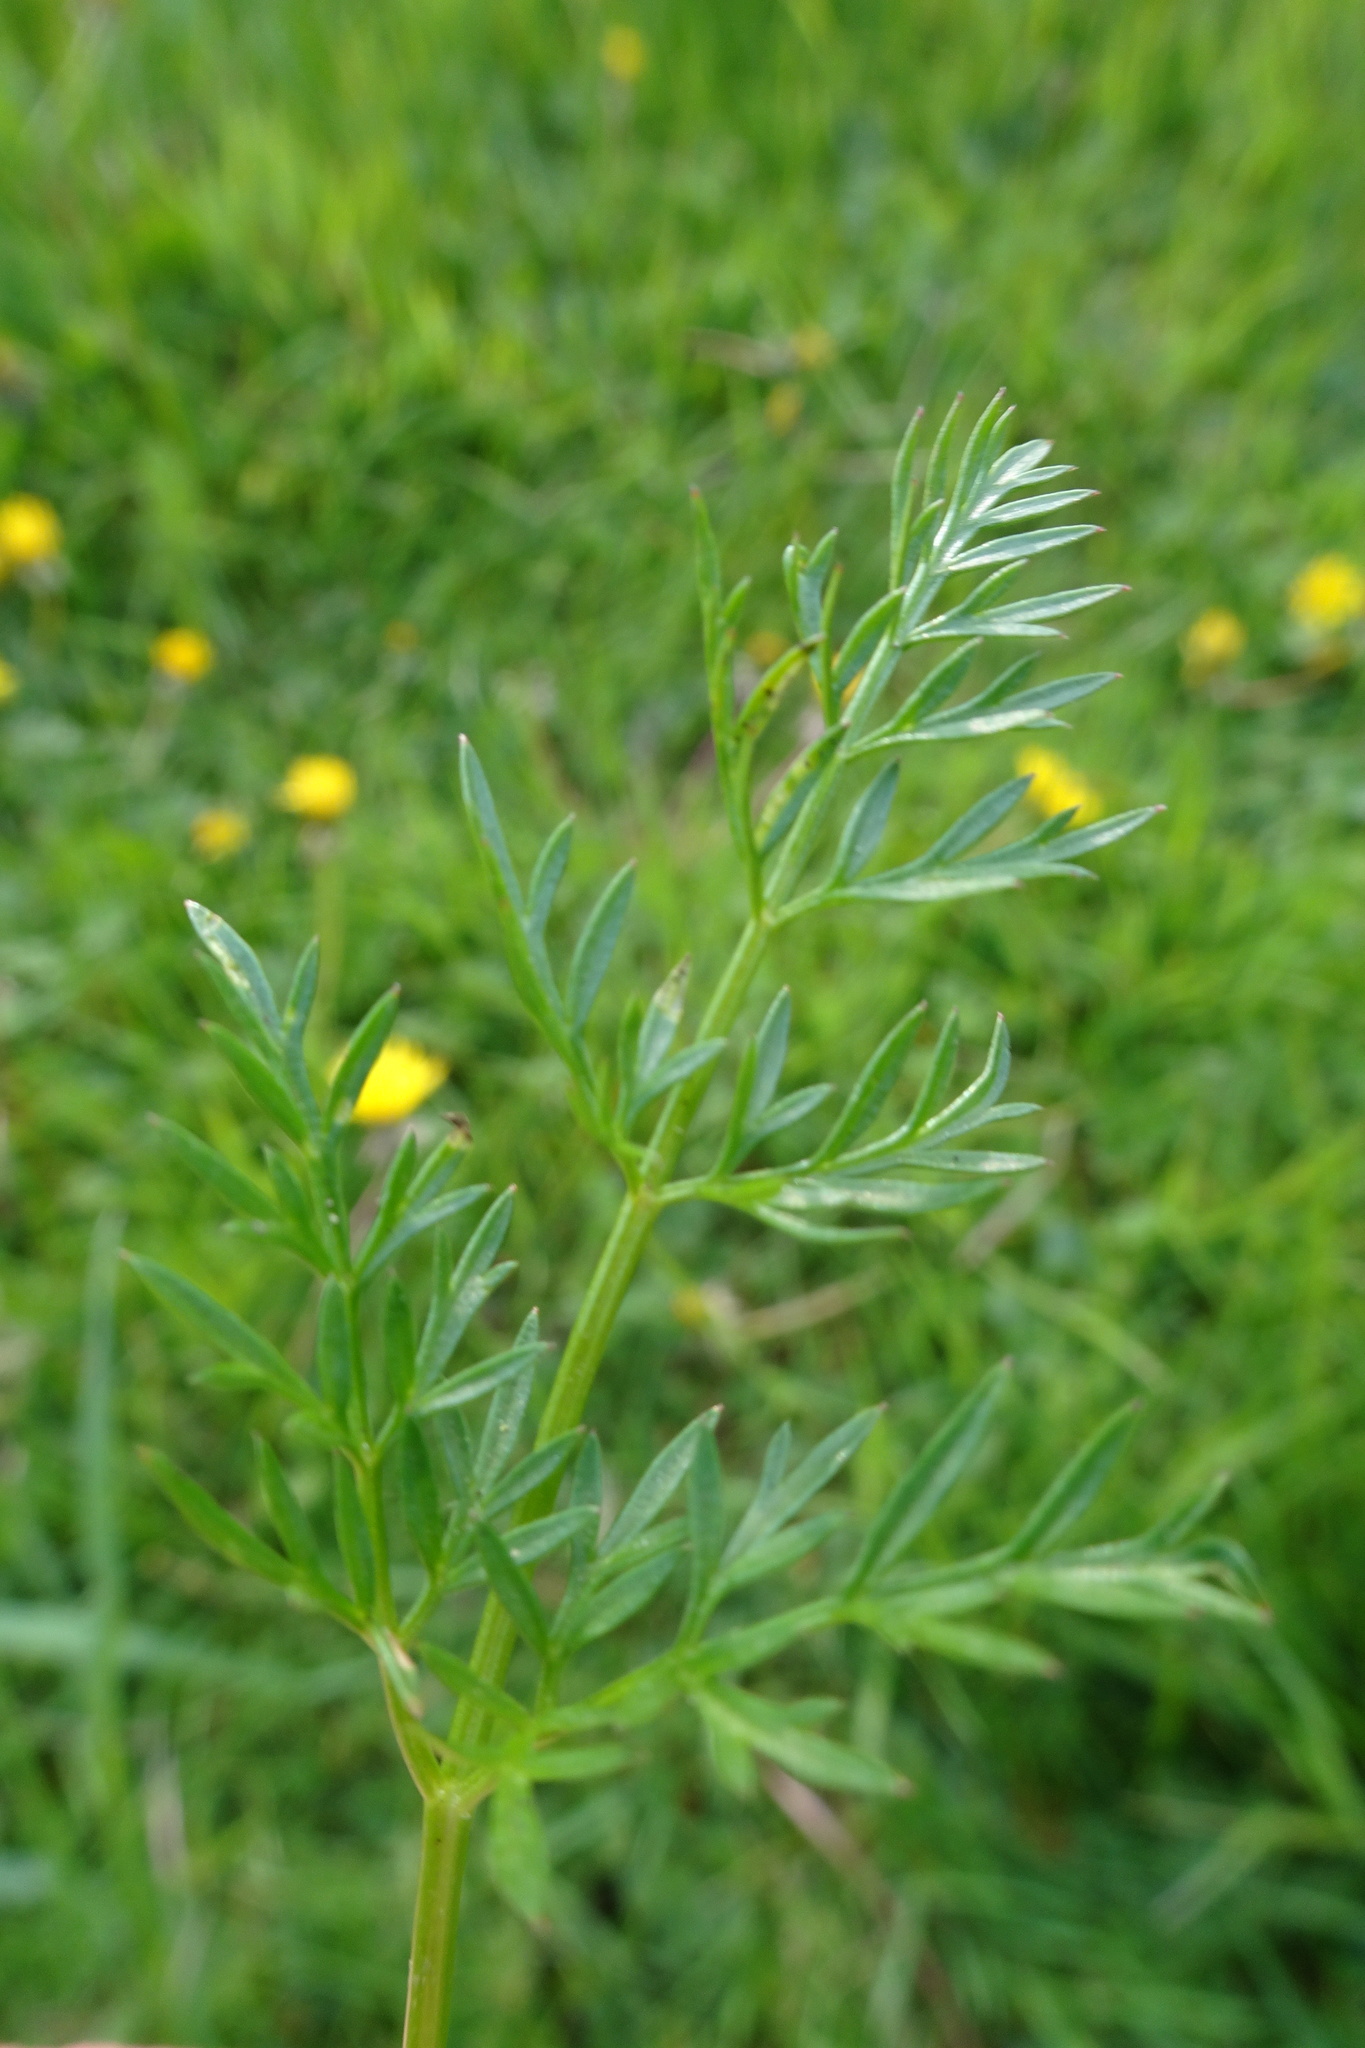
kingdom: Plantae
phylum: Tracheophyta
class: Magnoliopsida
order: Apiales
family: Apiaceae
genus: Conopodium
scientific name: Conopodium majus
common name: Pignut
